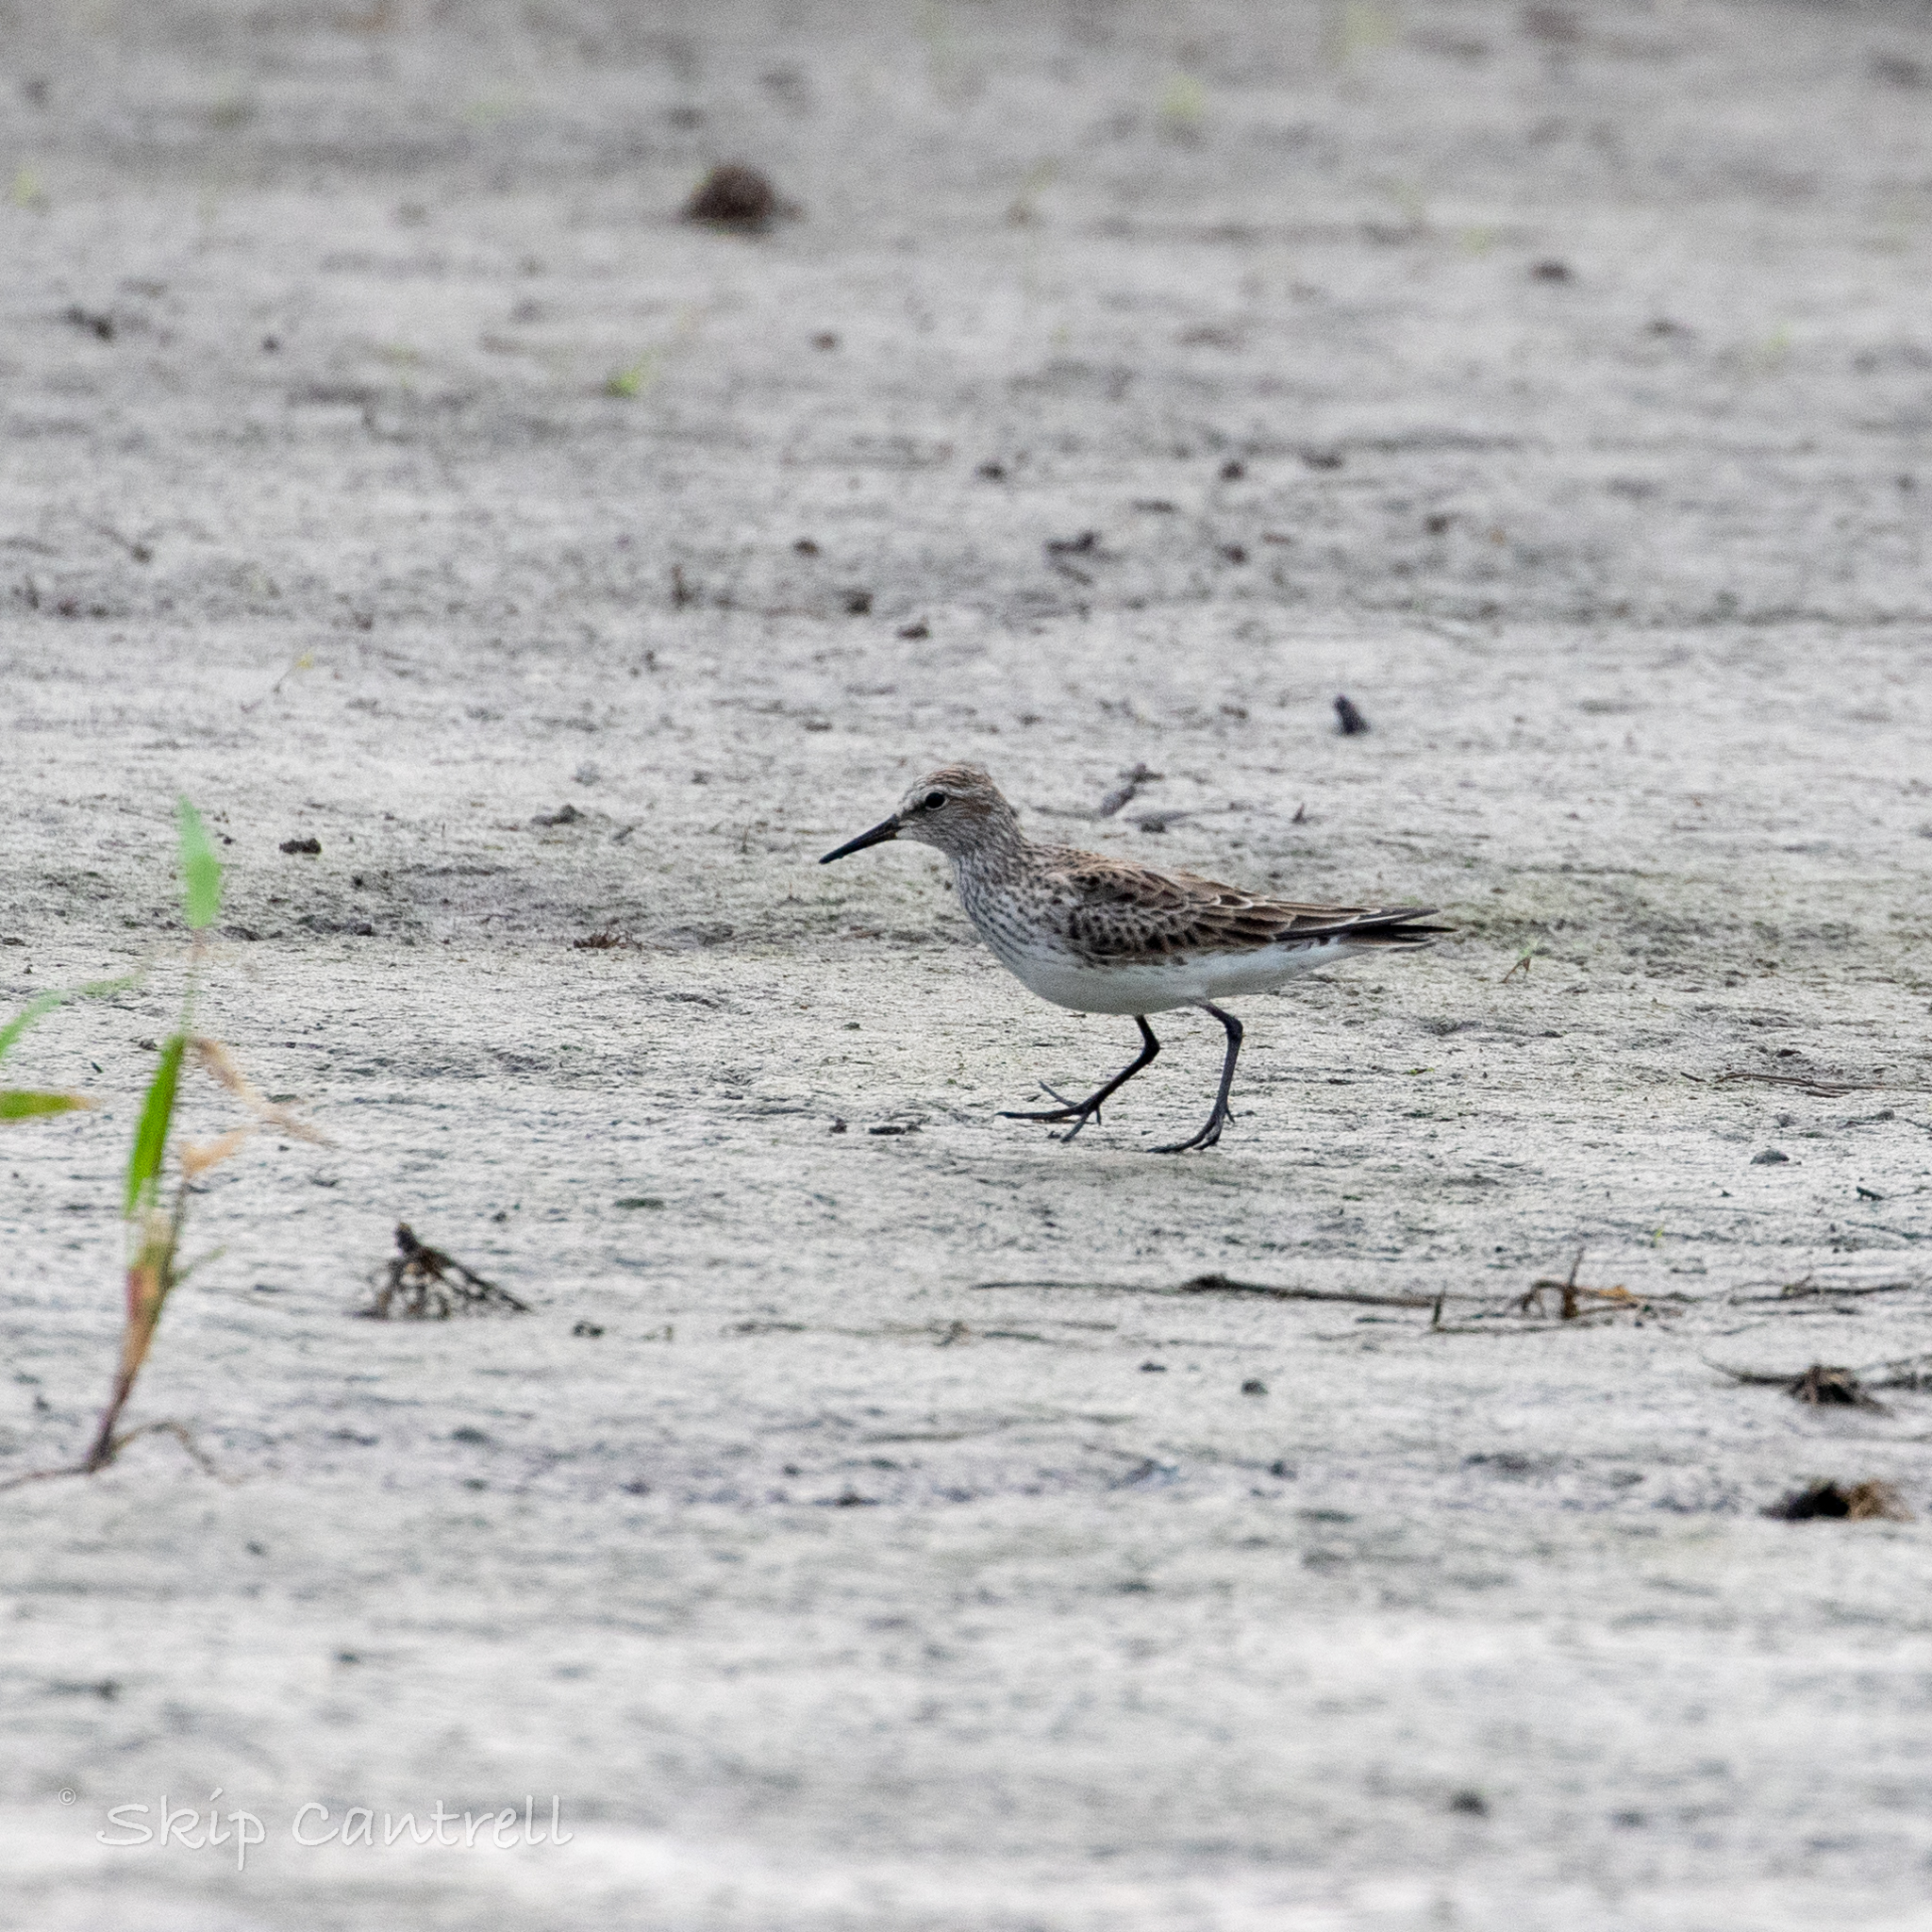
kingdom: Animalia
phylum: Chordata
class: Aves
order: Charadriiformes
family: Scolopacidae
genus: Calidris
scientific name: Calidris fuscicollis
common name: White-rumped sandpiper
